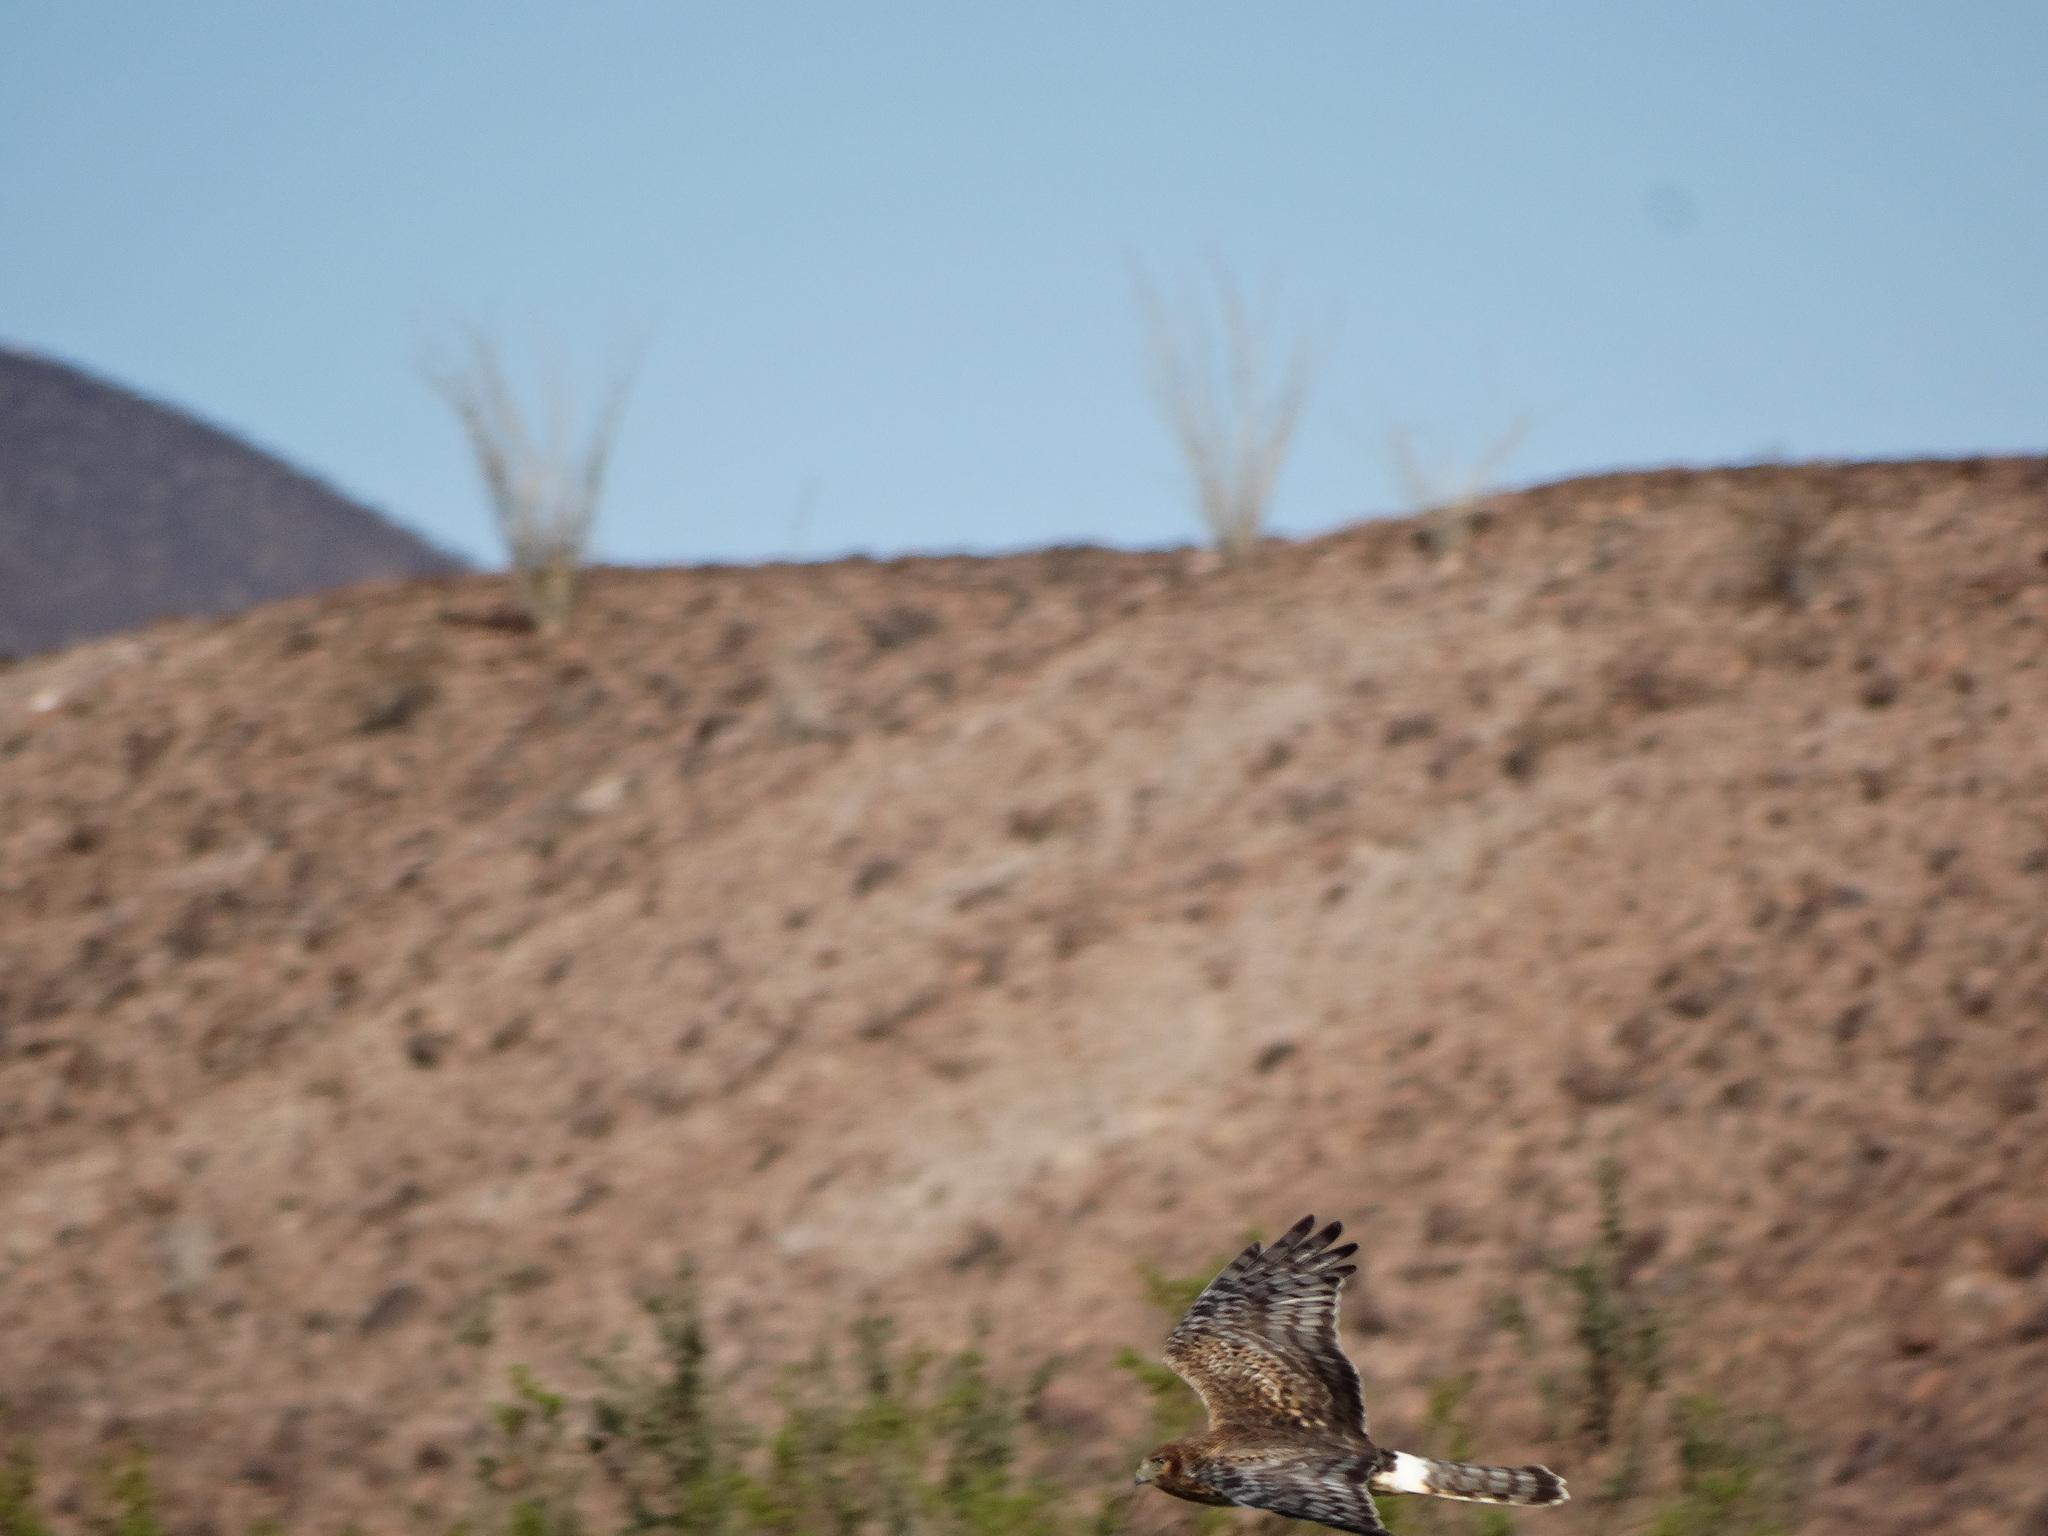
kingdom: Animalia
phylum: Chordata
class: Aves
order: Accipitriformes
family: Accipitridae
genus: Circus
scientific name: Circus cyaneus
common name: Hen harrier
